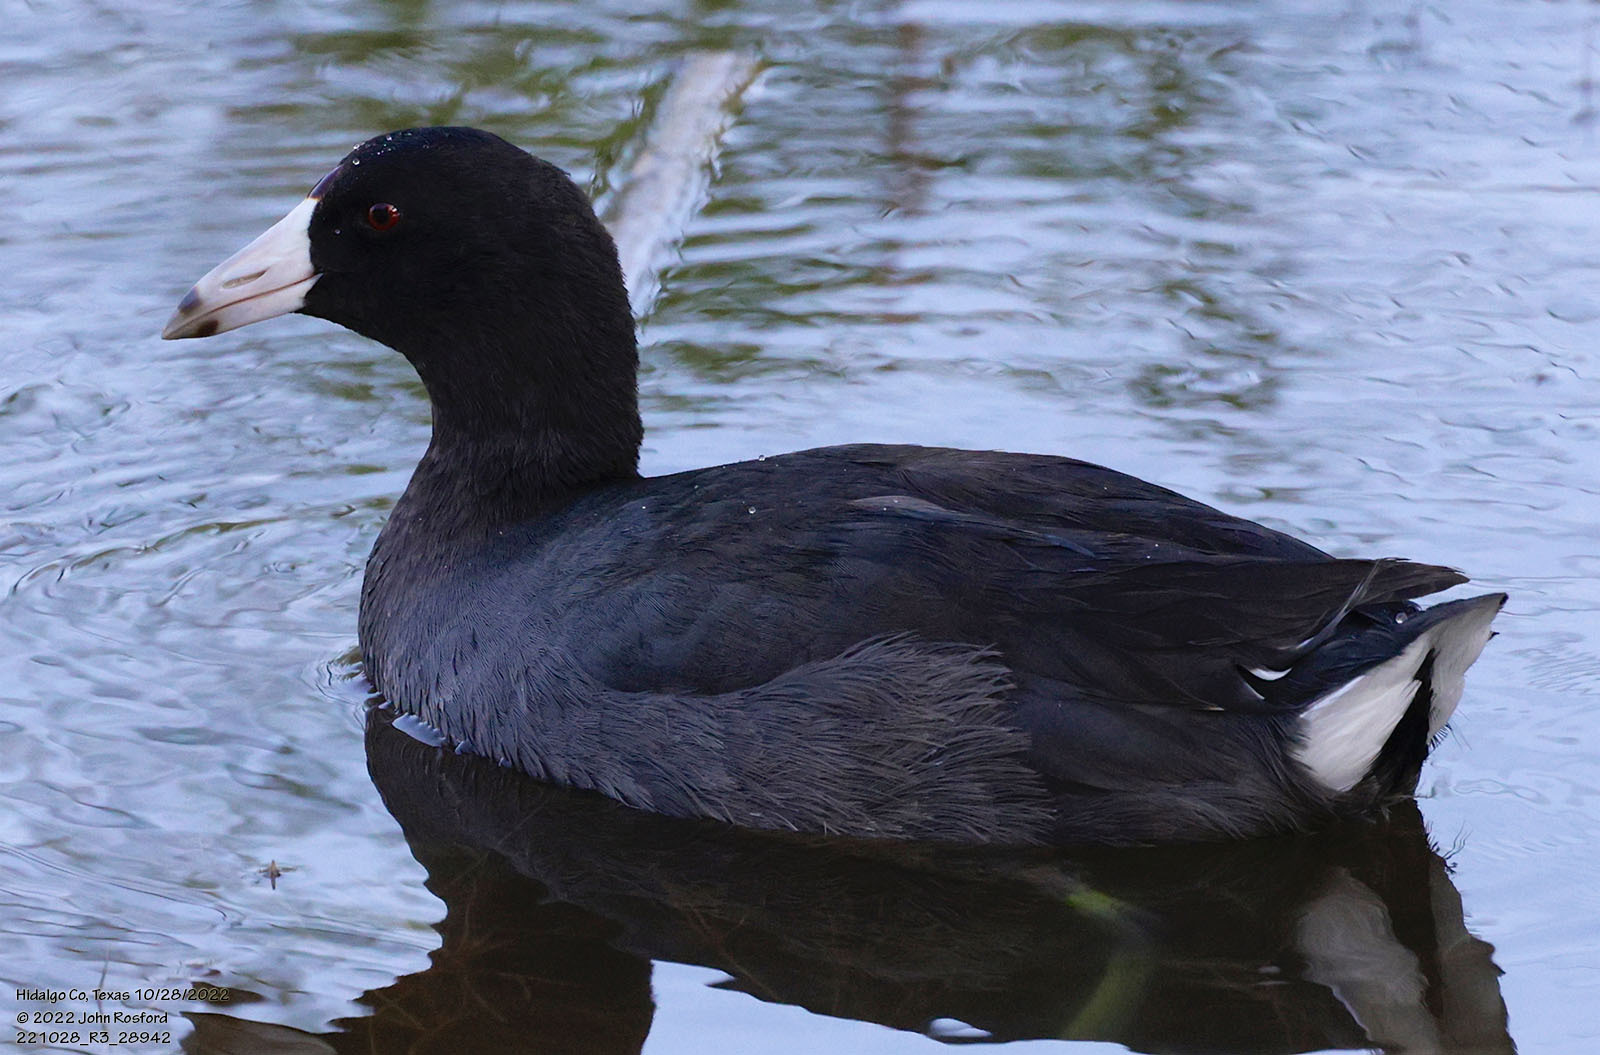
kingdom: Animalia
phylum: Chordata
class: Aves
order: Gruiformes
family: Rallidae
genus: Fulica
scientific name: Fulica americana
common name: American coot
